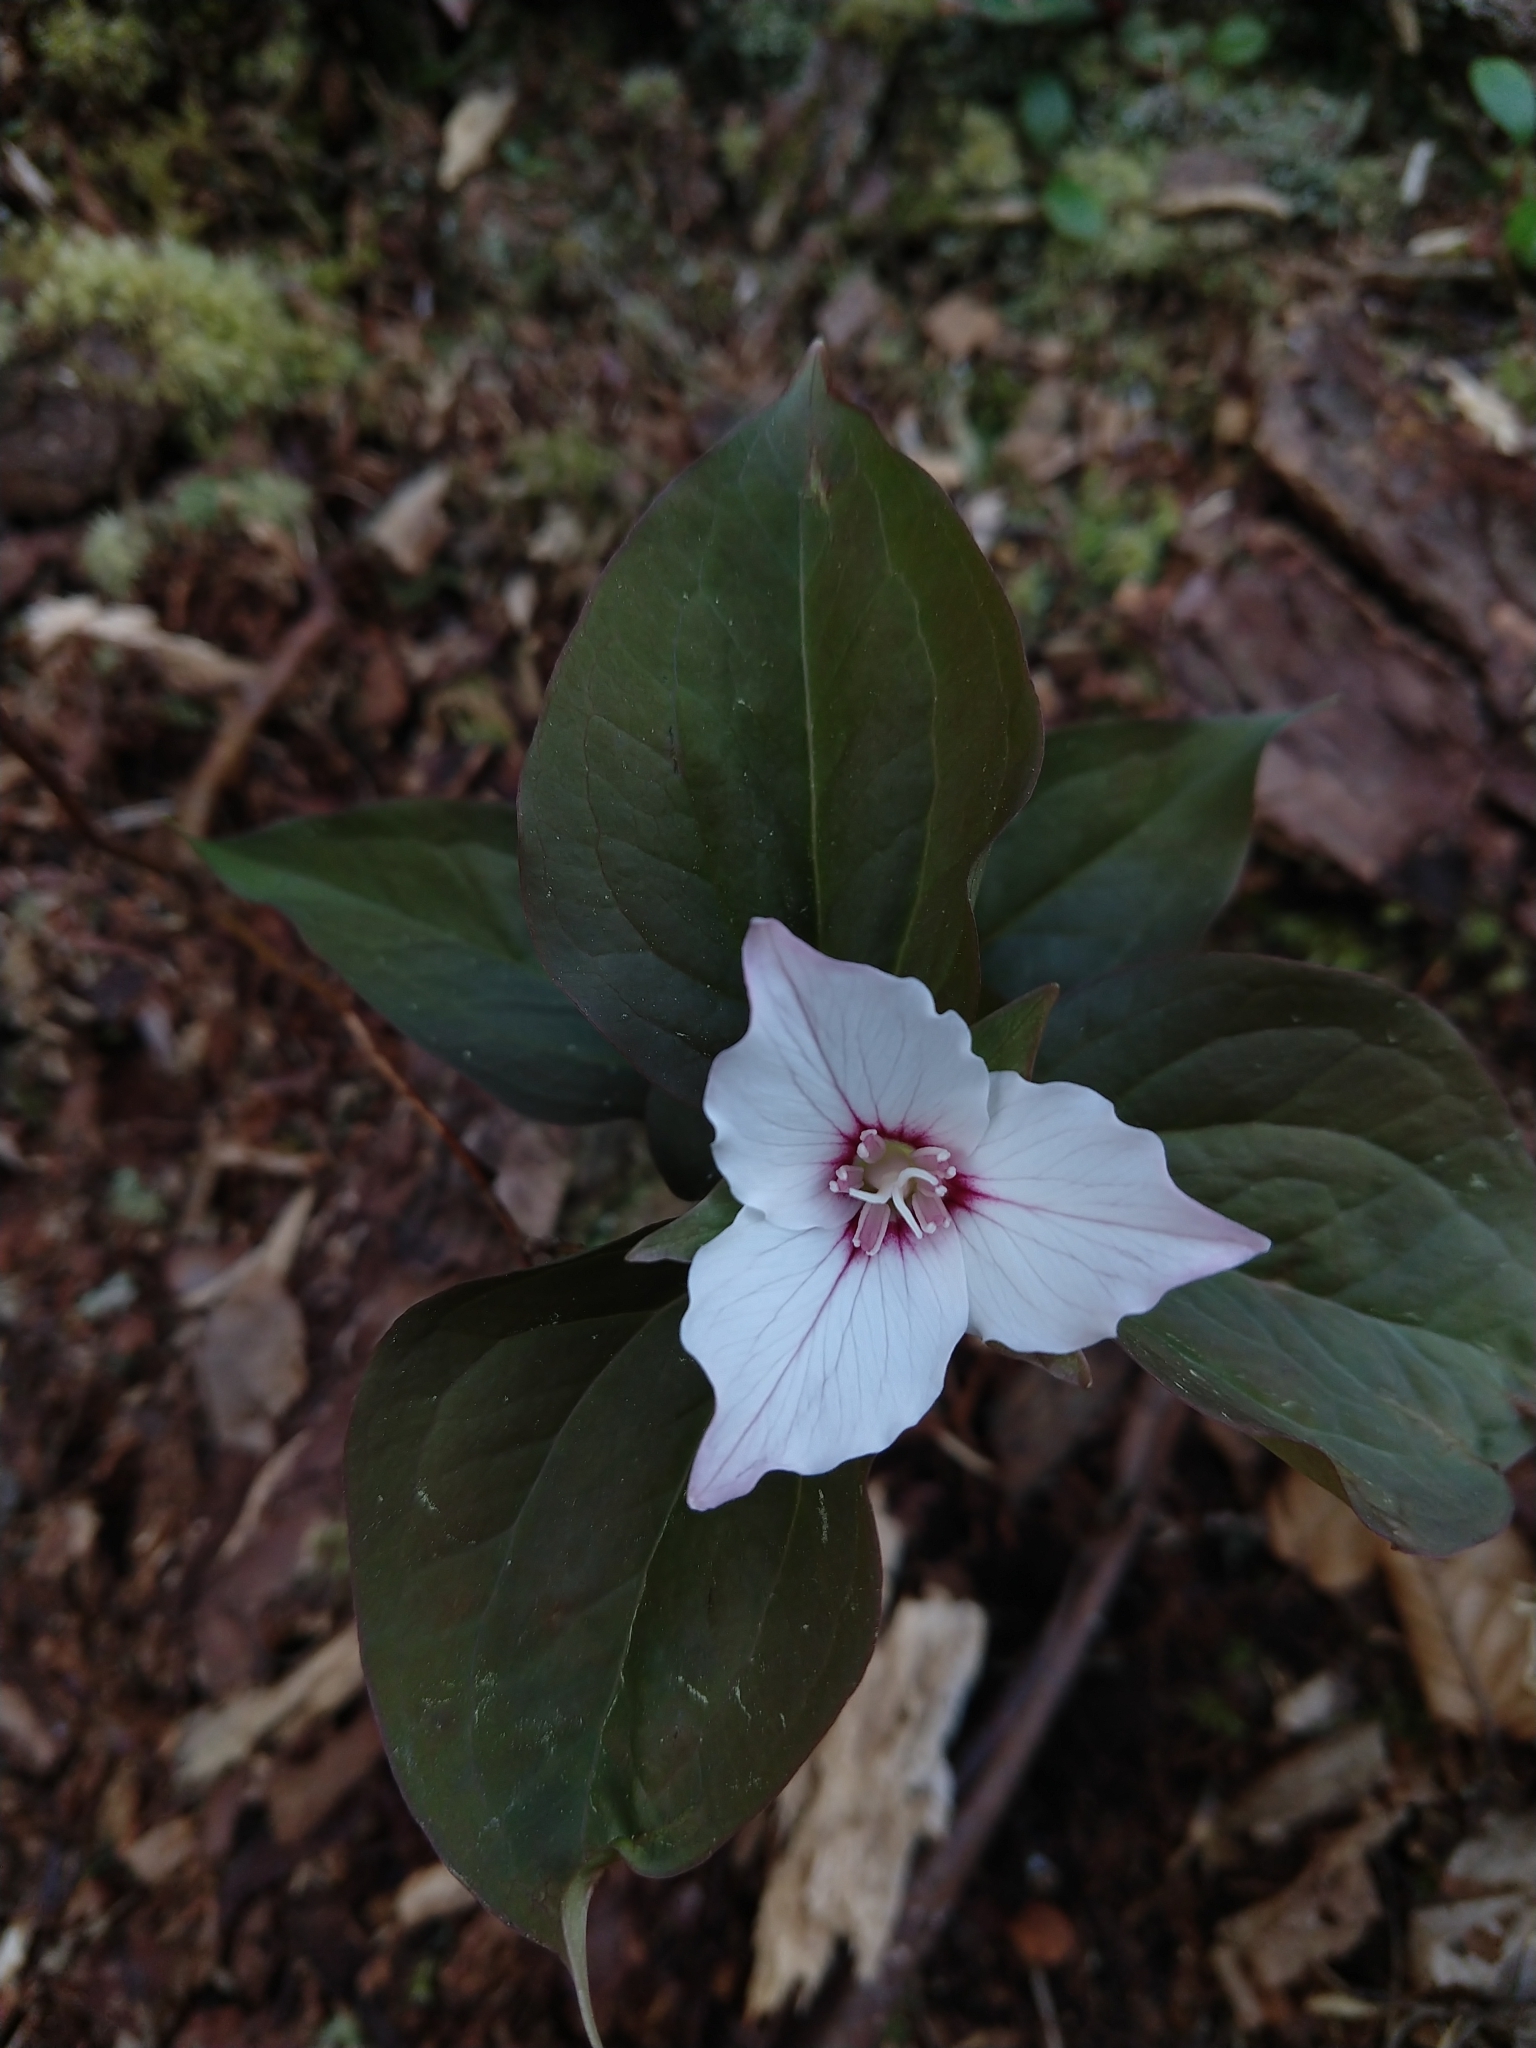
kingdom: Plantae
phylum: Tracheophyta
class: Liliopsida
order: Liliales
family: Melanthiaceae
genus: Trillium
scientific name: Trillium undulatum
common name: Paint trillium
